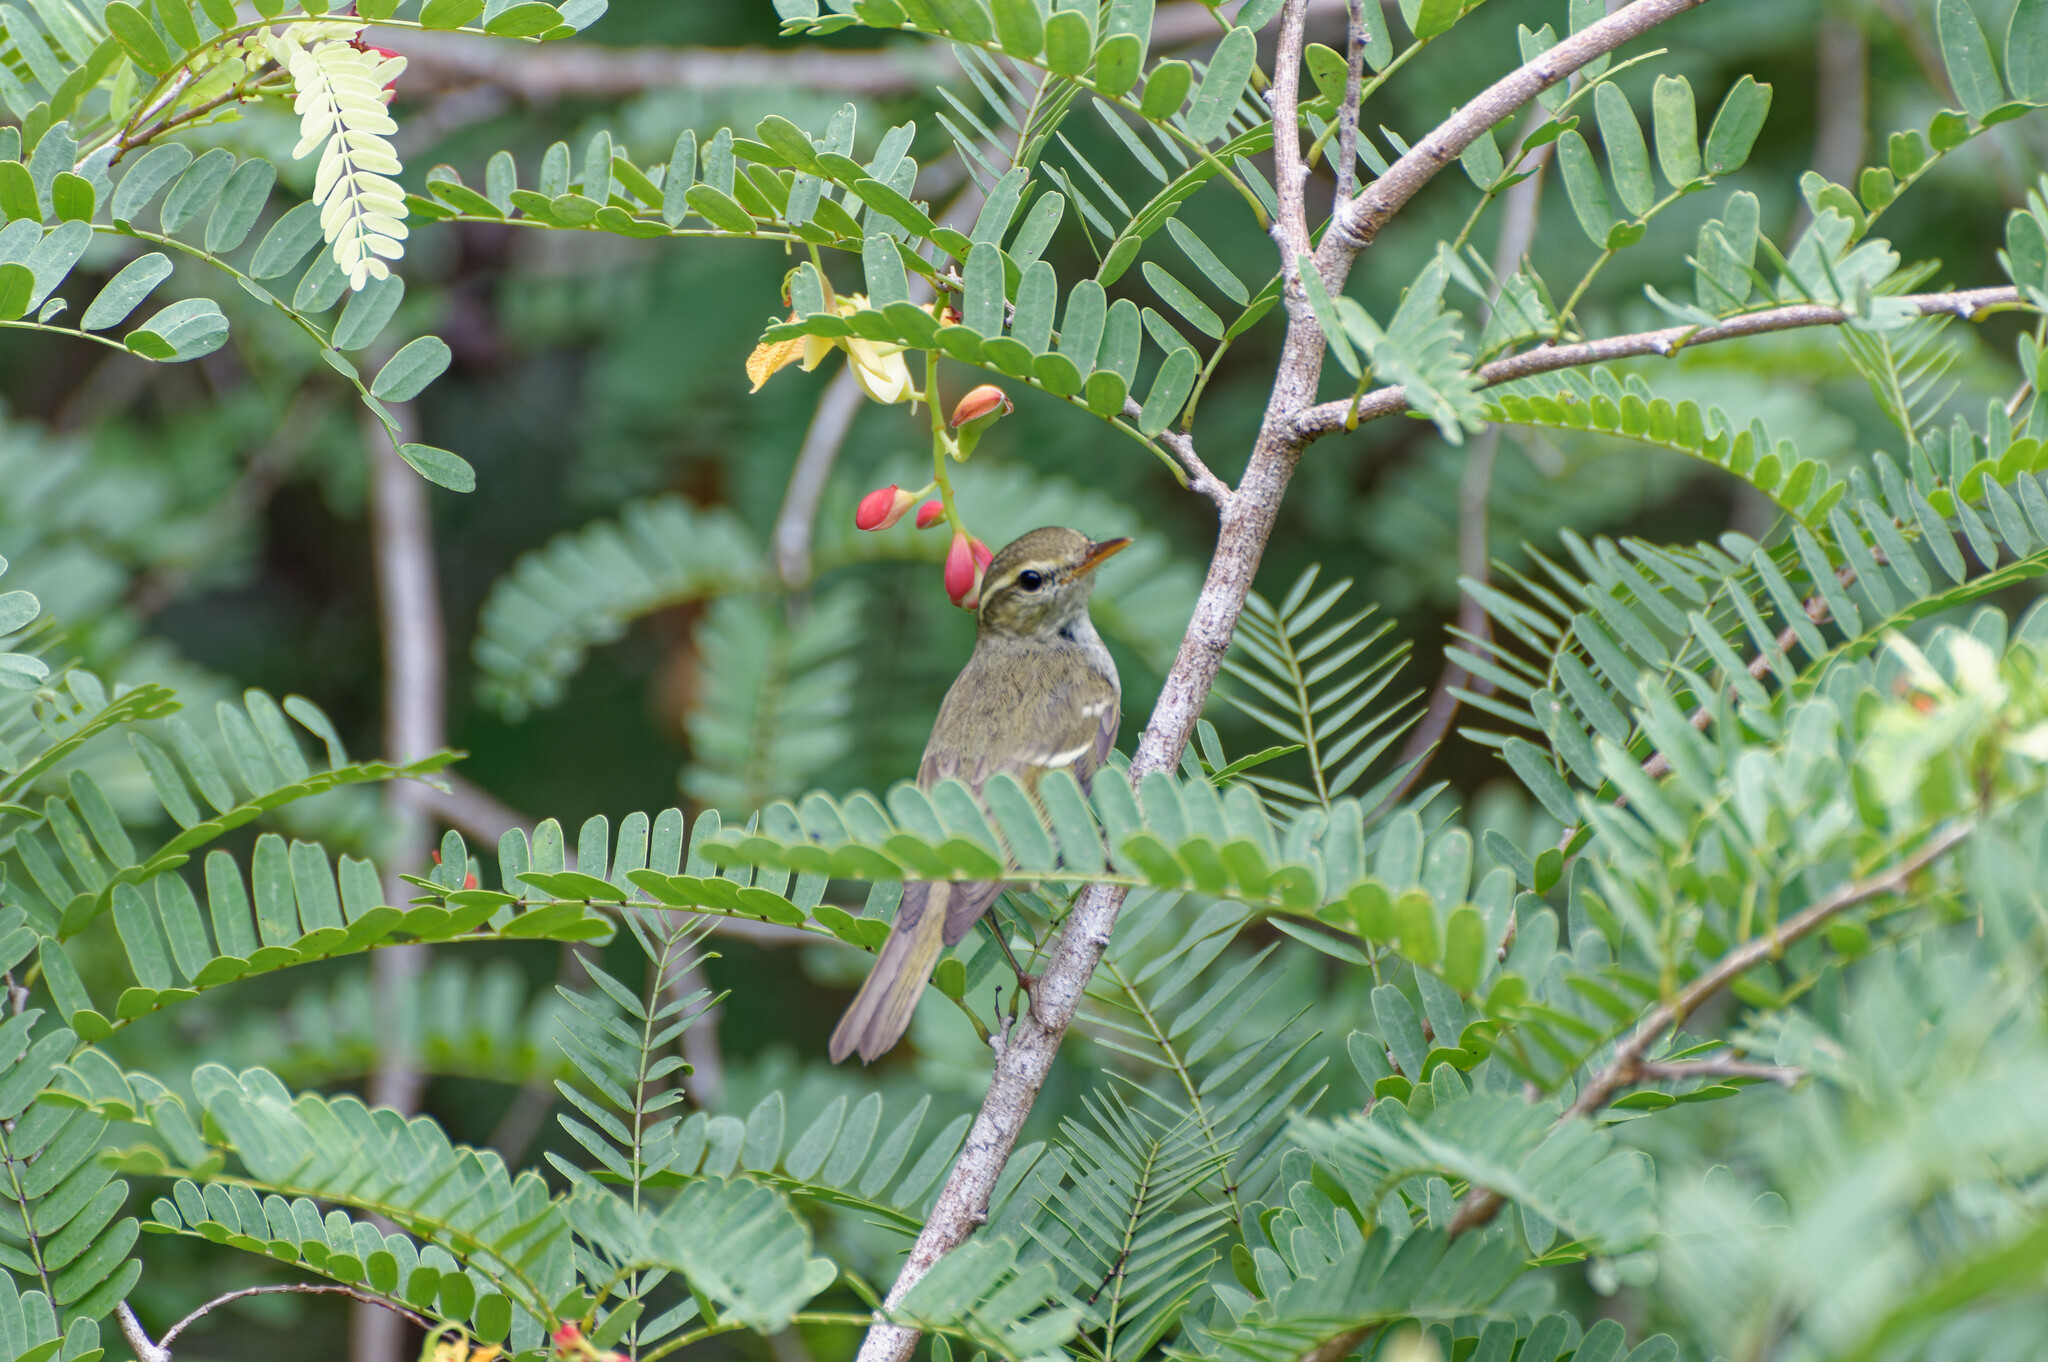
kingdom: Animalia
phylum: Chordata
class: Aves
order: Passeriformes
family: Phylloscopidae
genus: Phylloscopus
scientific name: Phylloscopus inornatus
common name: Yellow-browed warbler
